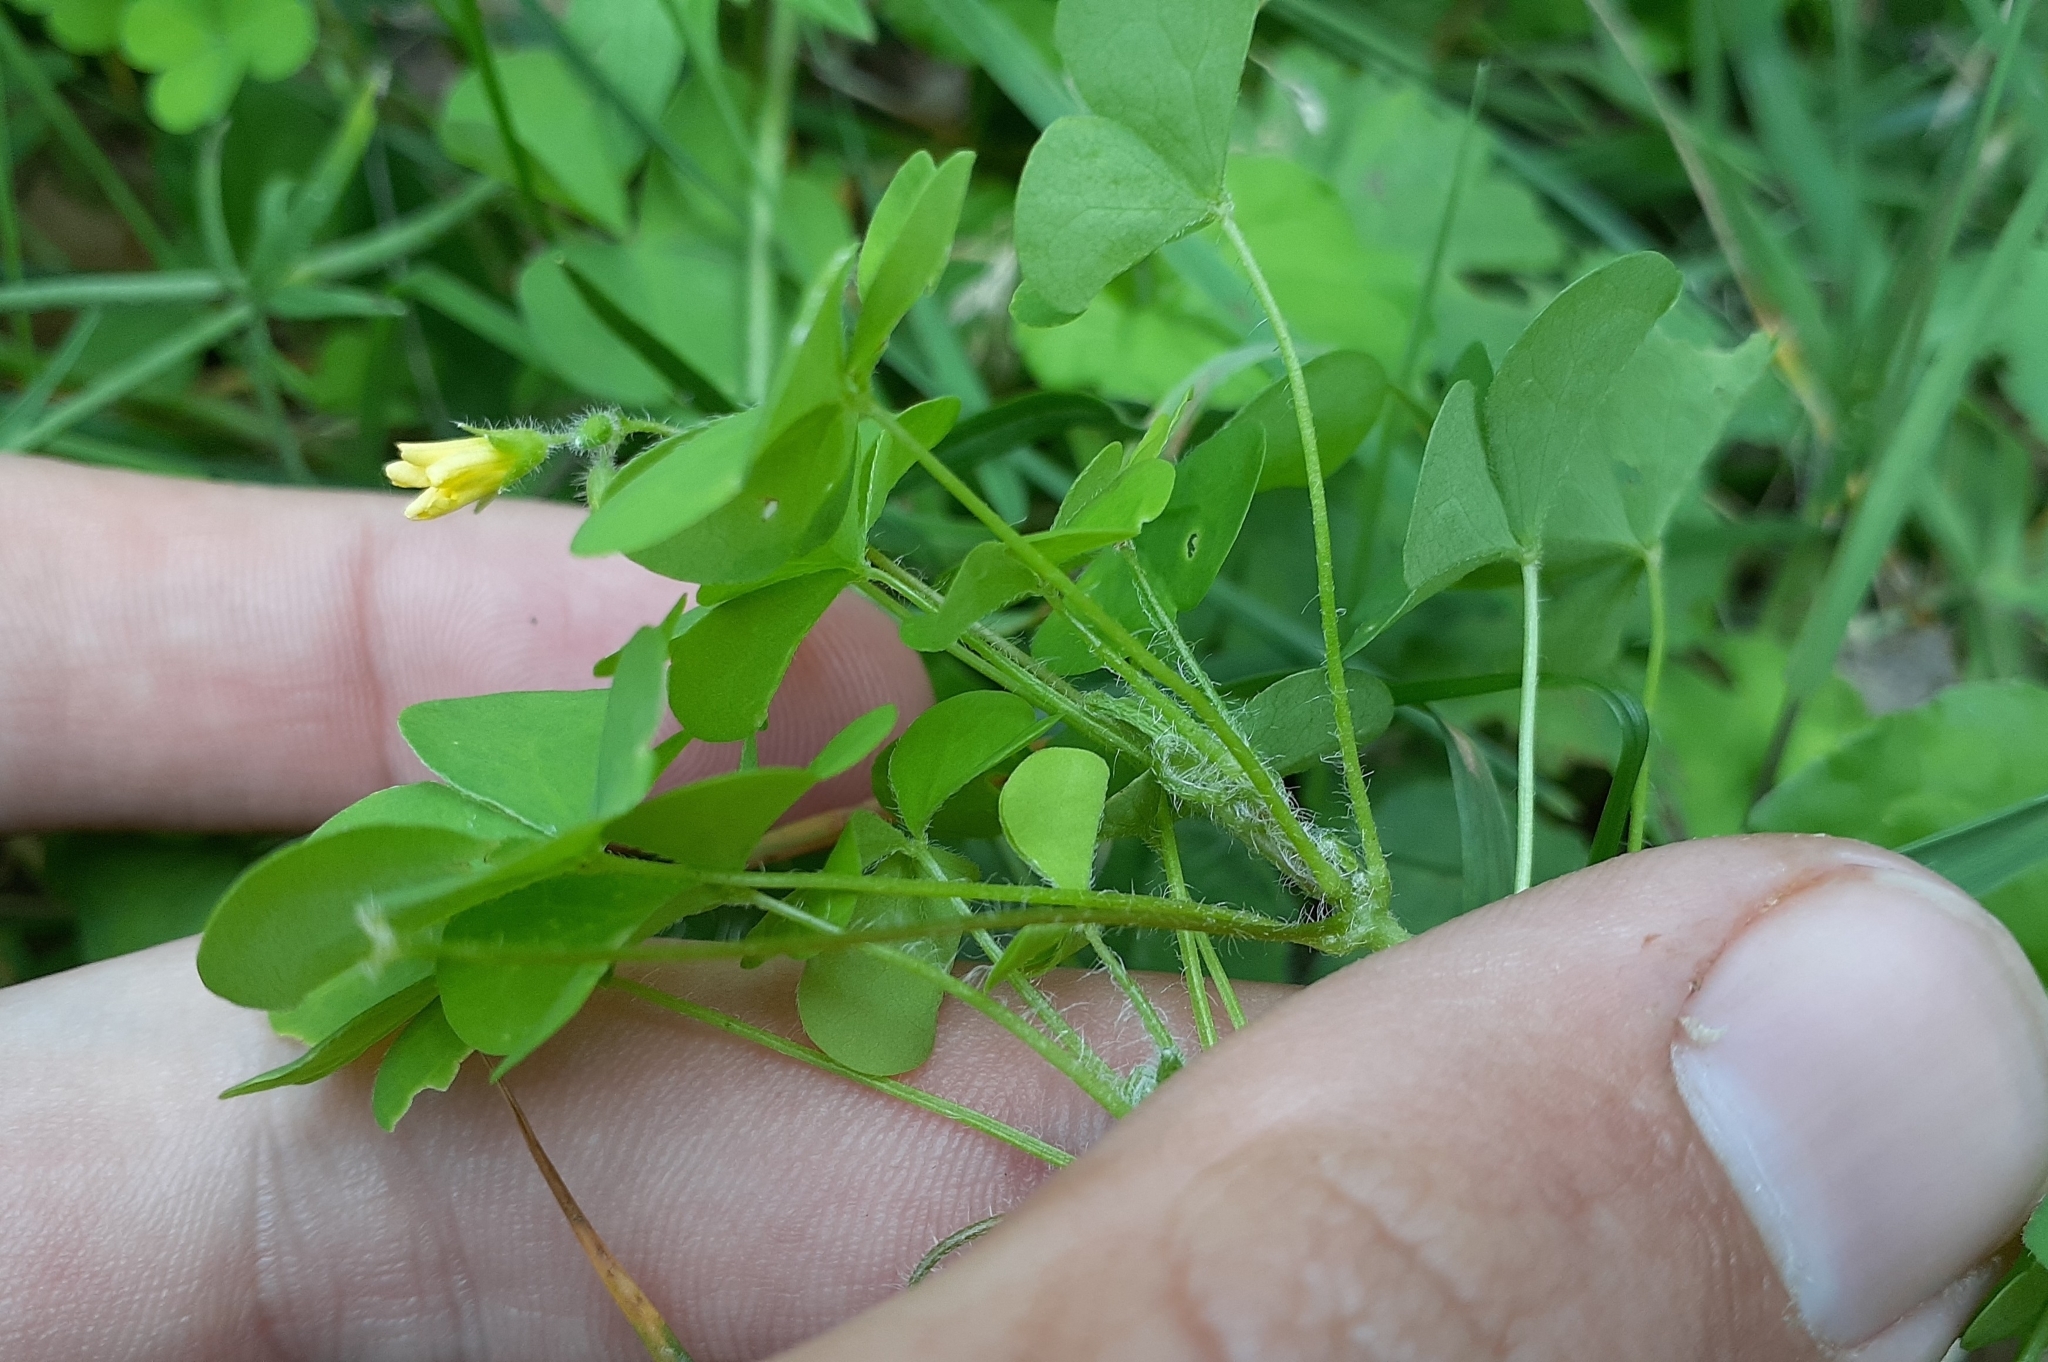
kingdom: Plantae
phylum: Tracheophyta
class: Magnoliopsida
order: Oxalidales
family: Oxalidaceae
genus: Oxalis
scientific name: Oxalis stricta
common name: Upright yellow-sorrel
